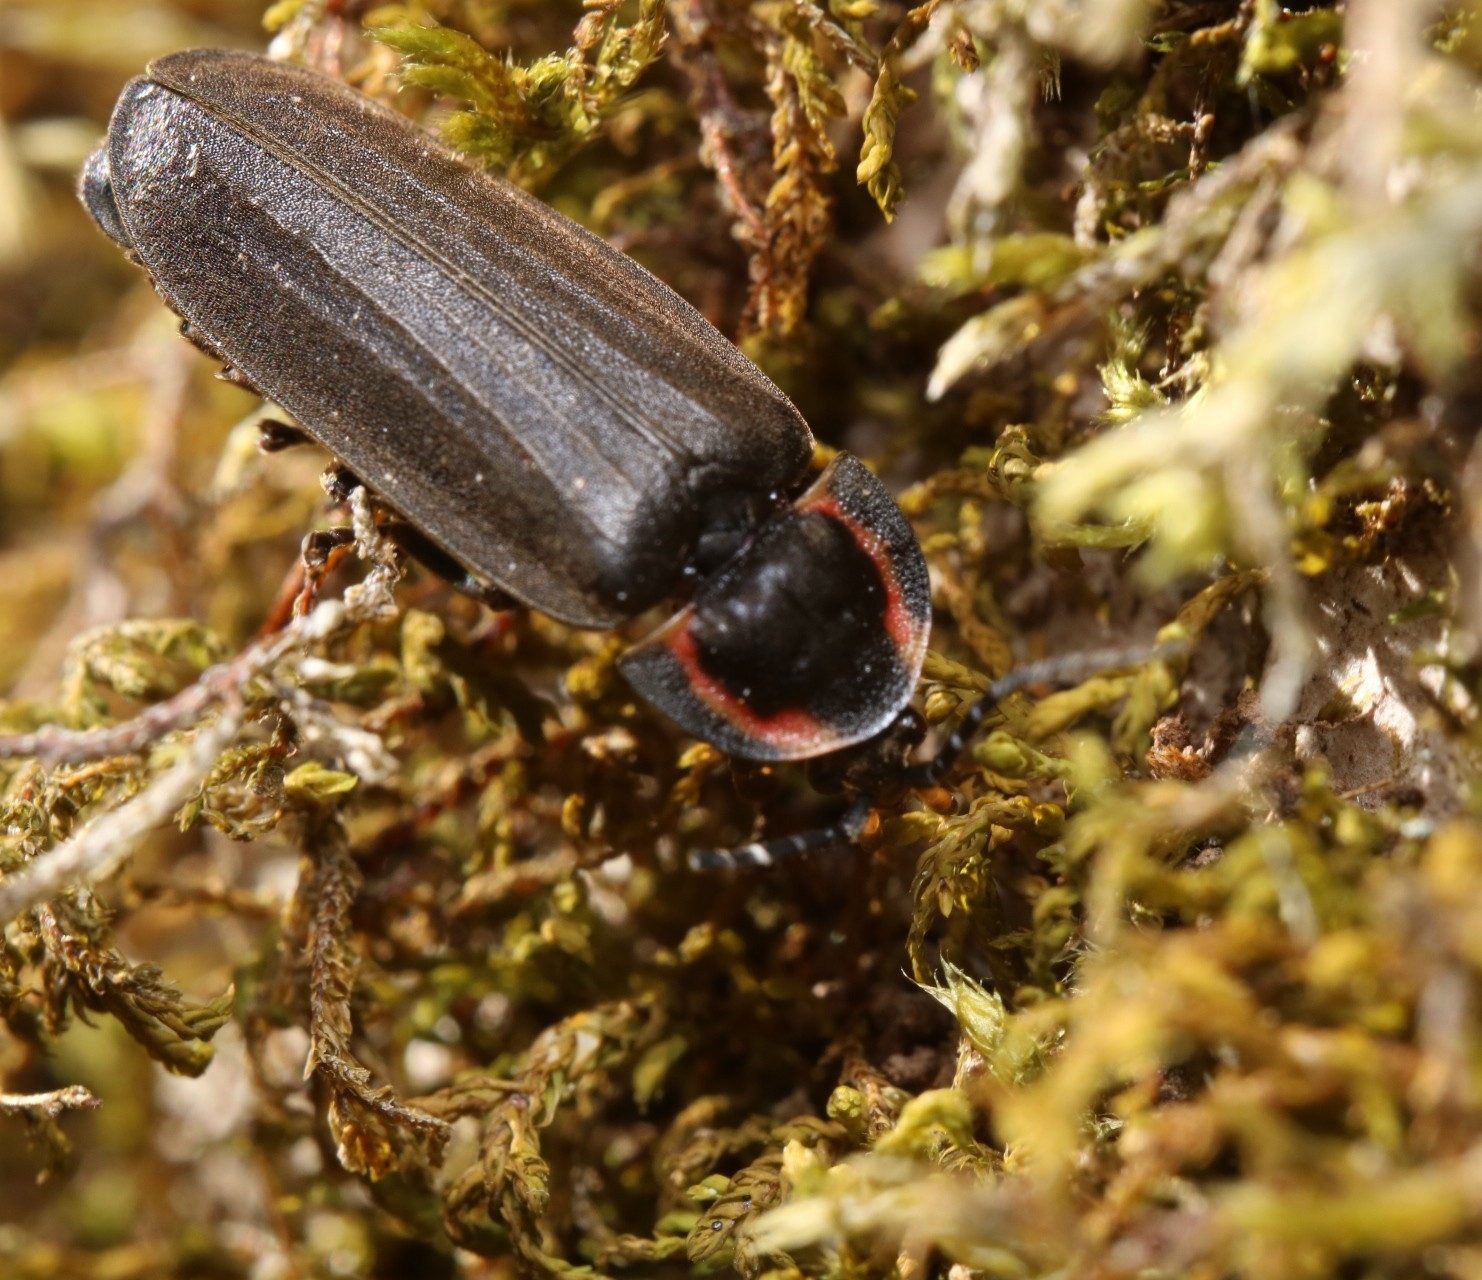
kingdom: Animalia
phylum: Arthropoda
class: Insecta
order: Coleoptera
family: Lampyridae
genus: Photinus
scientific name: Photinus corrusca
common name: Winter firefly
